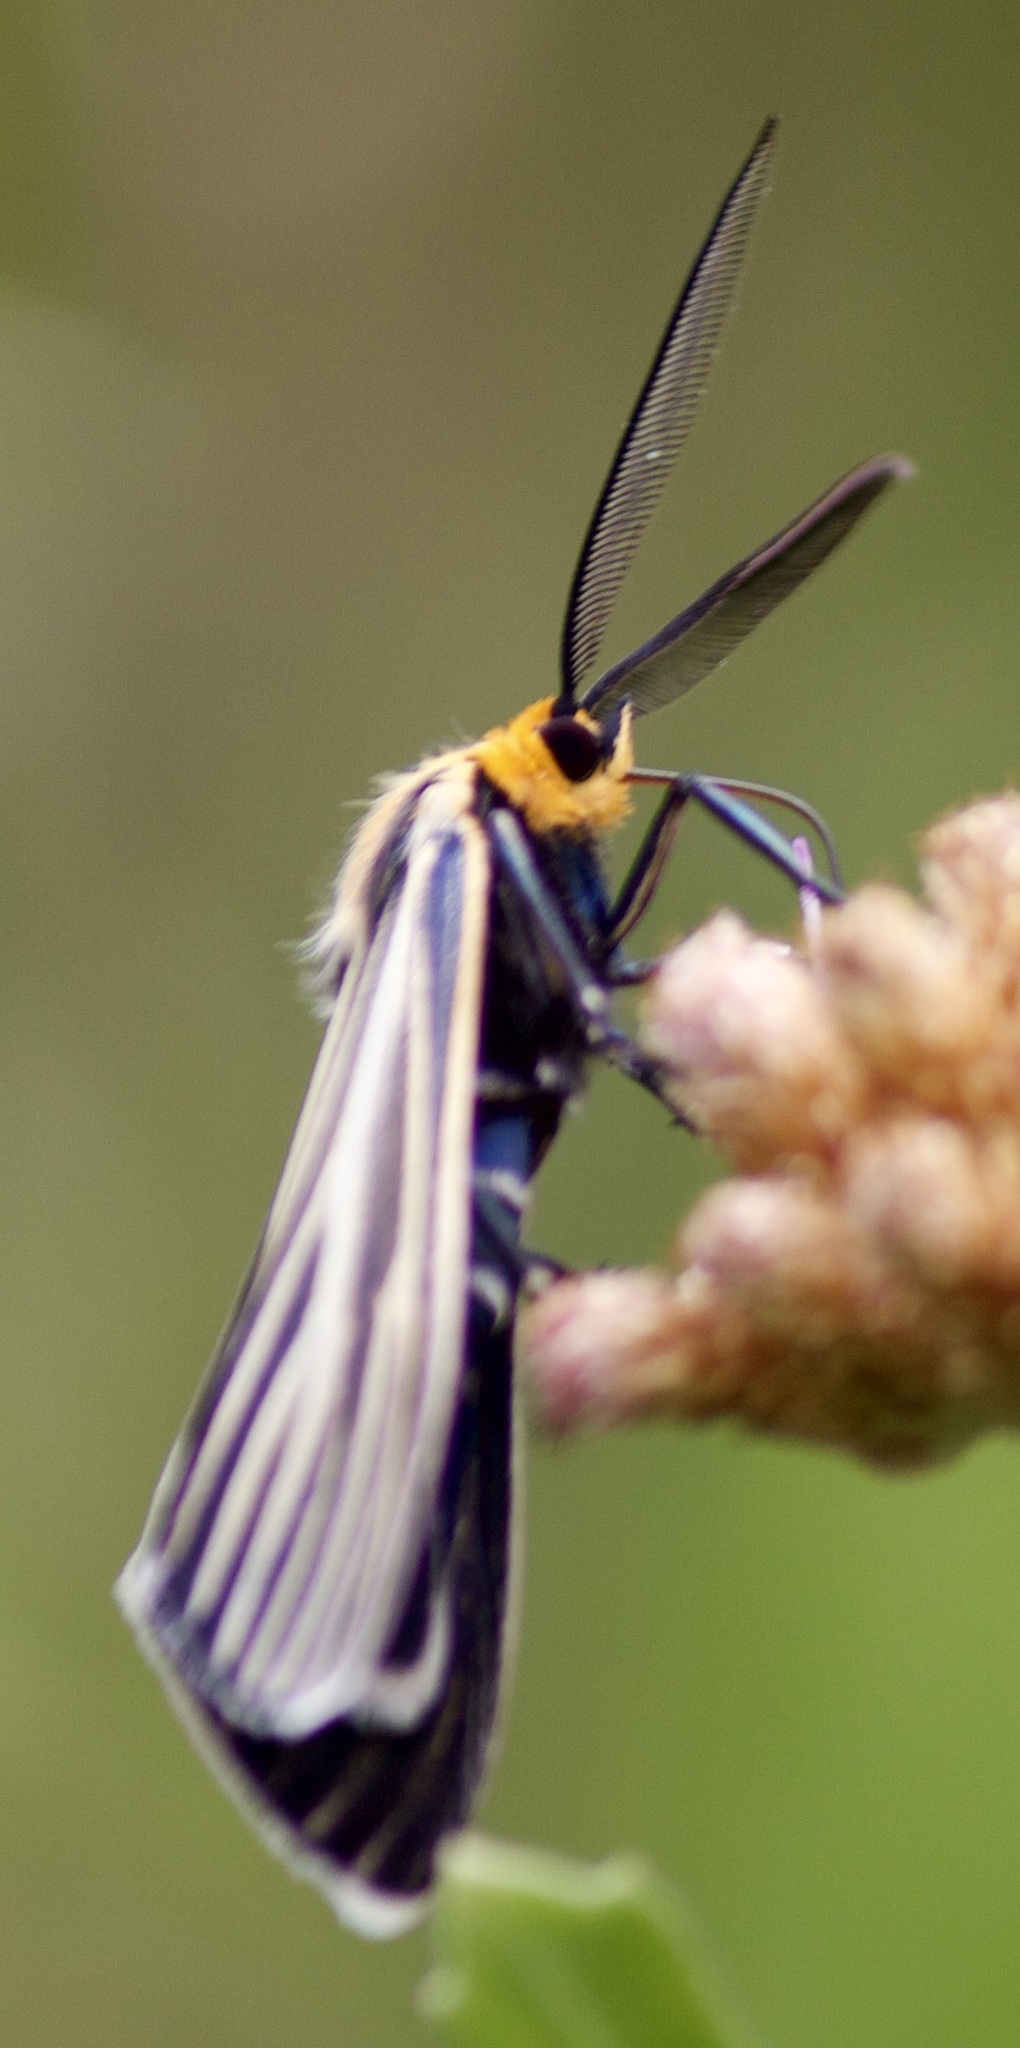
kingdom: Animalia
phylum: Arthropoda
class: Insecta
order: Lepidoptera
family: Erebidae
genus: Ctenucha
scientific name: Ctenucha vittigerum
